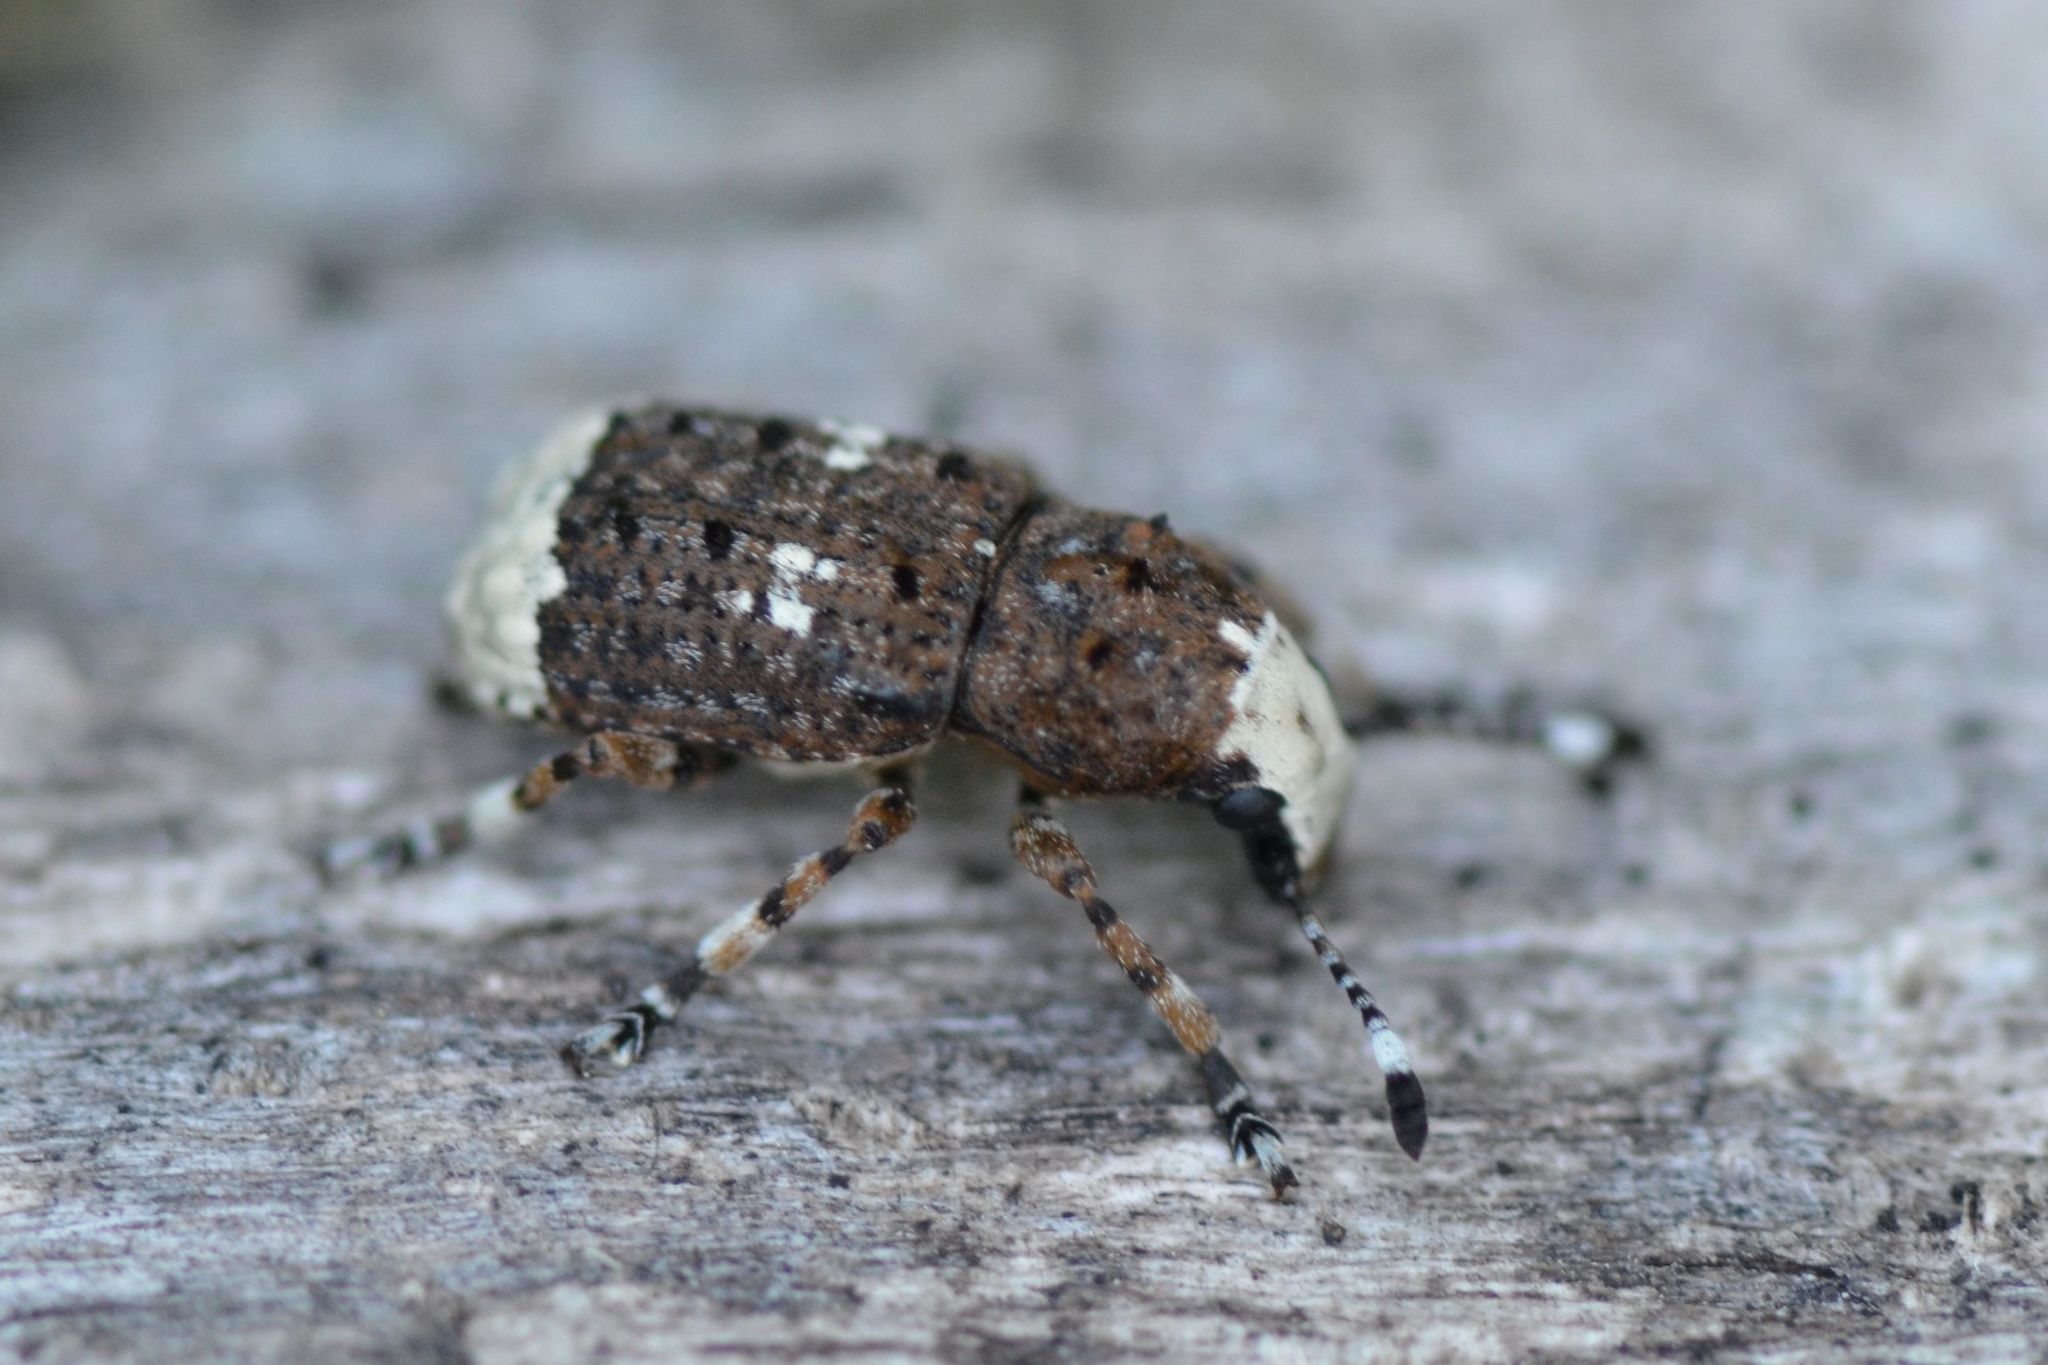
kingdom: Animalia
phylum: Arthropoda
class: Insecta
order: Coleoptera
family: Anthribidae
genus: Platystomos
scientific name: Platystomos albinus
